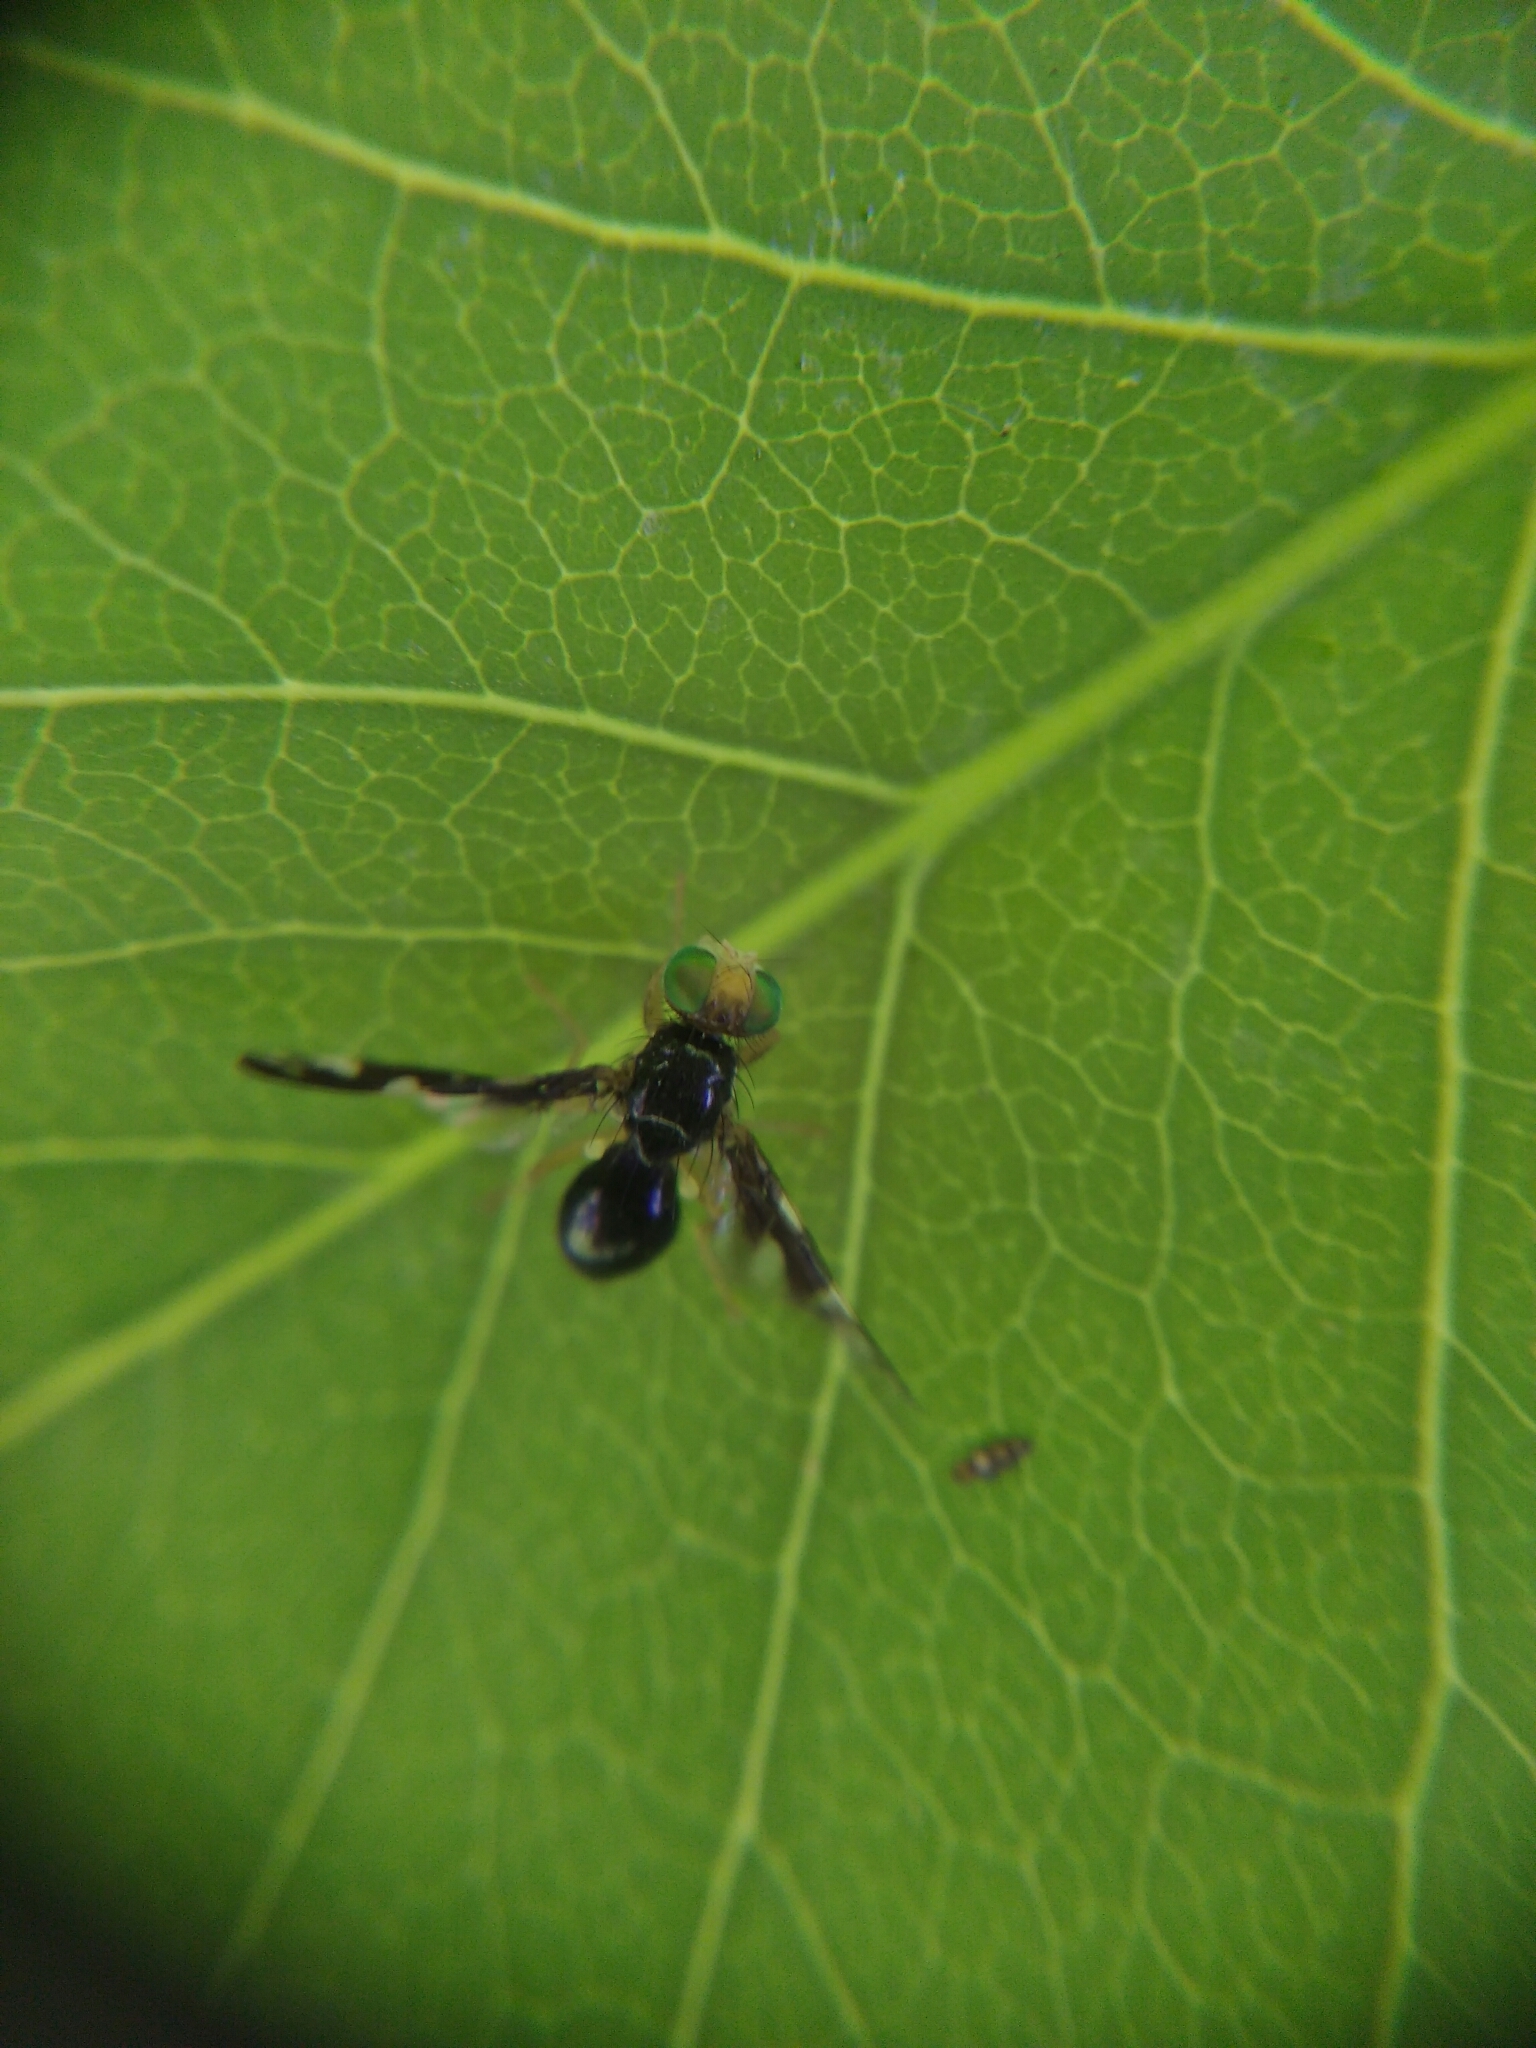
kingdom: Animalia
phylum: Arthropoda
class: Insecta
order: Diptera
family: Tephritidae
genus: Euleia
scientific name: Euleia heraclei
